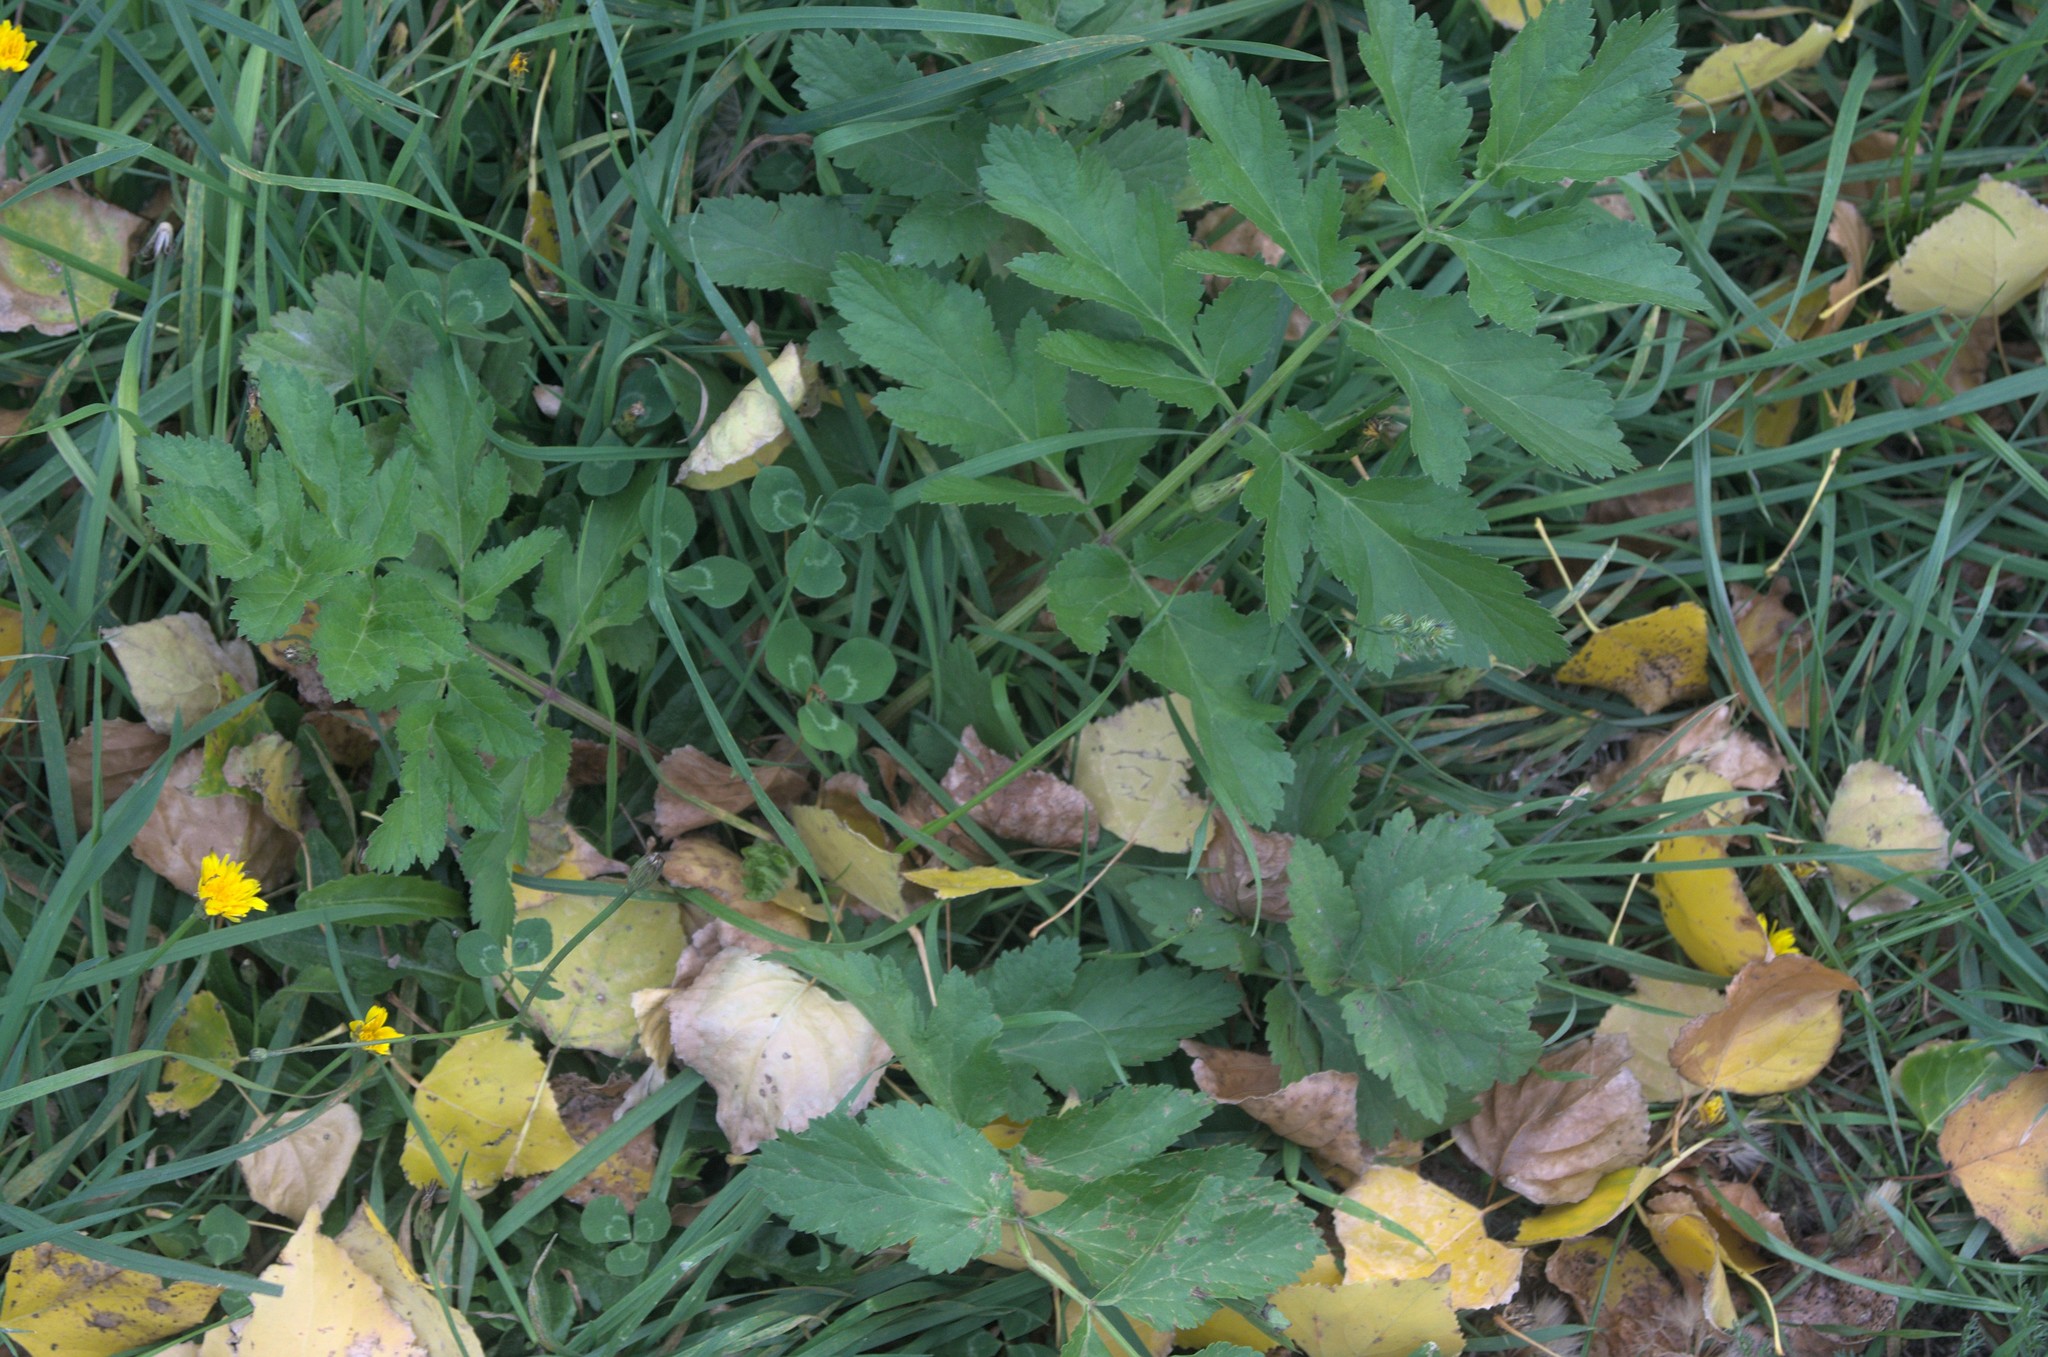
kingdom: Plantae
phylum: Tracheophyta
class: Magnoliopsida
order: Apiales
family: Apiaceae
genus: Pastinaca
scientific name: Pastinaca sativa
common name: Wild parsnip
